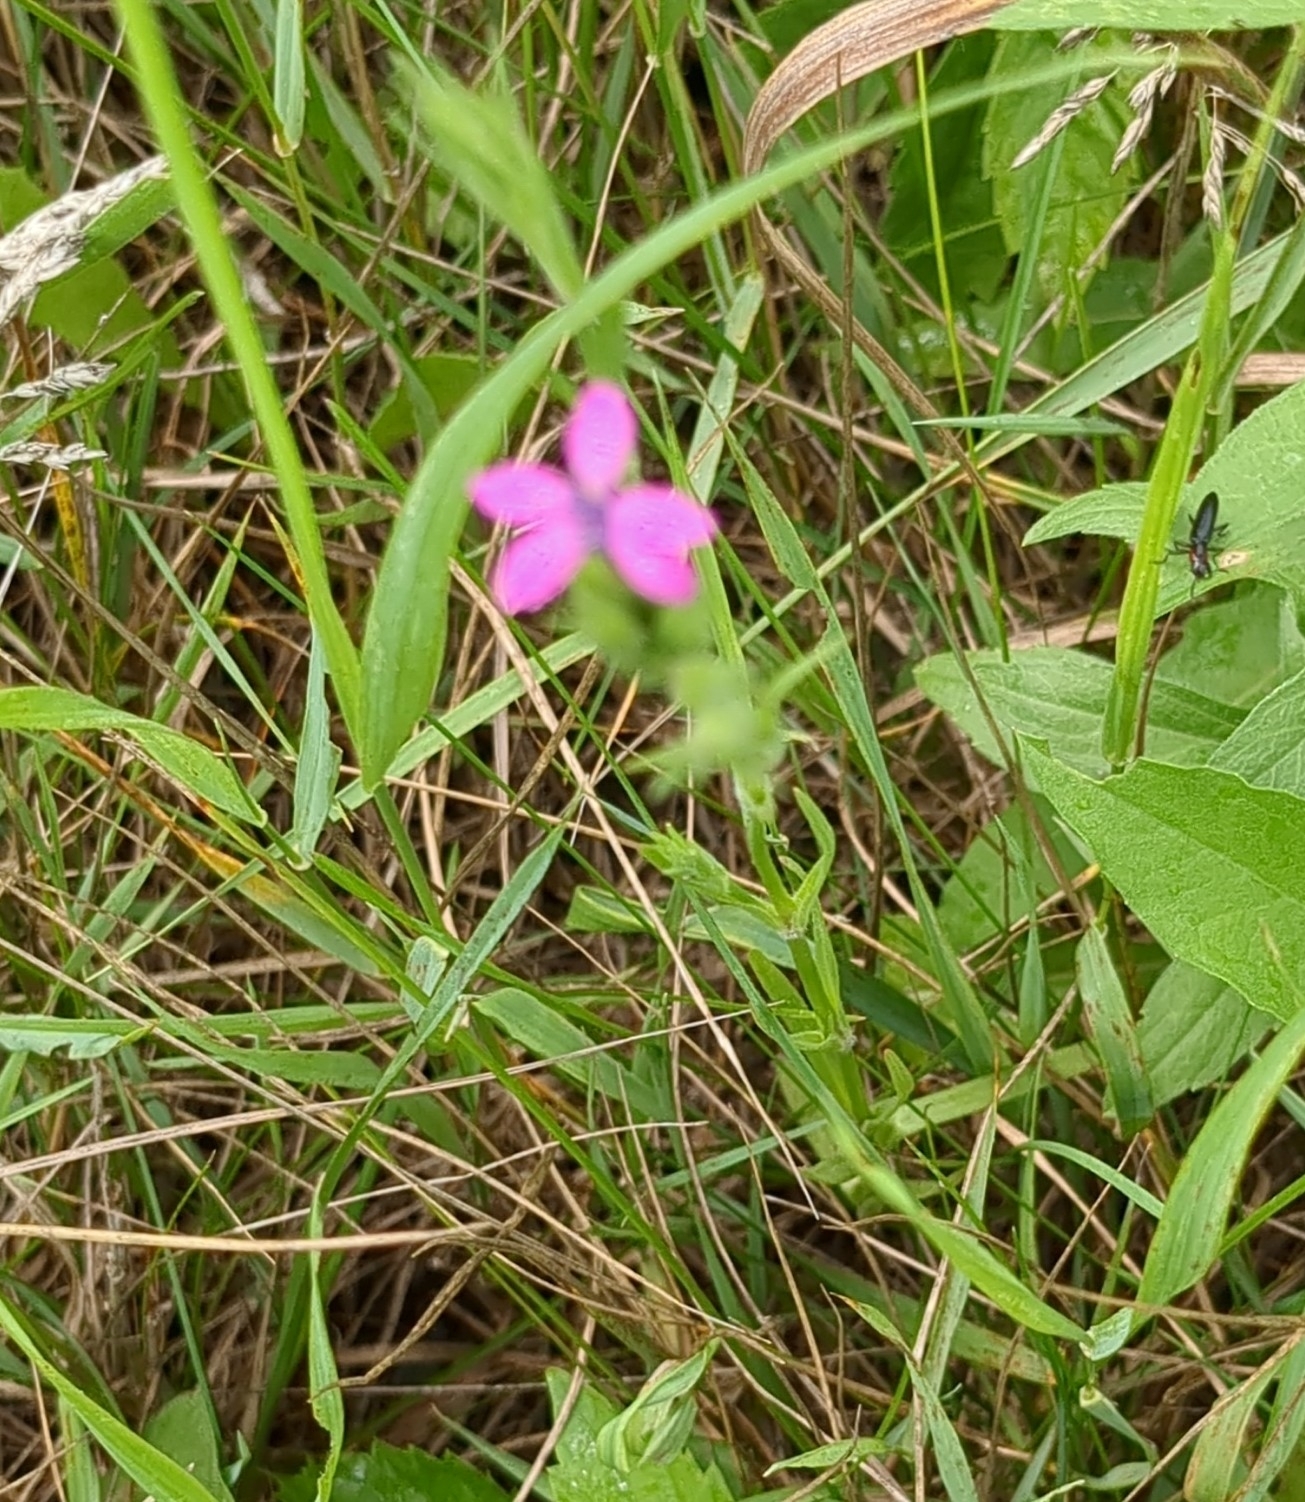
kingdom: Plantae
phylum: Tracheophyta
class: Magnoliopsida
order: Caryophyllales
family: Caryophyllaceae
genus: Dianthus
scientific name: Dianthus armeria
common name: Deptford pink
